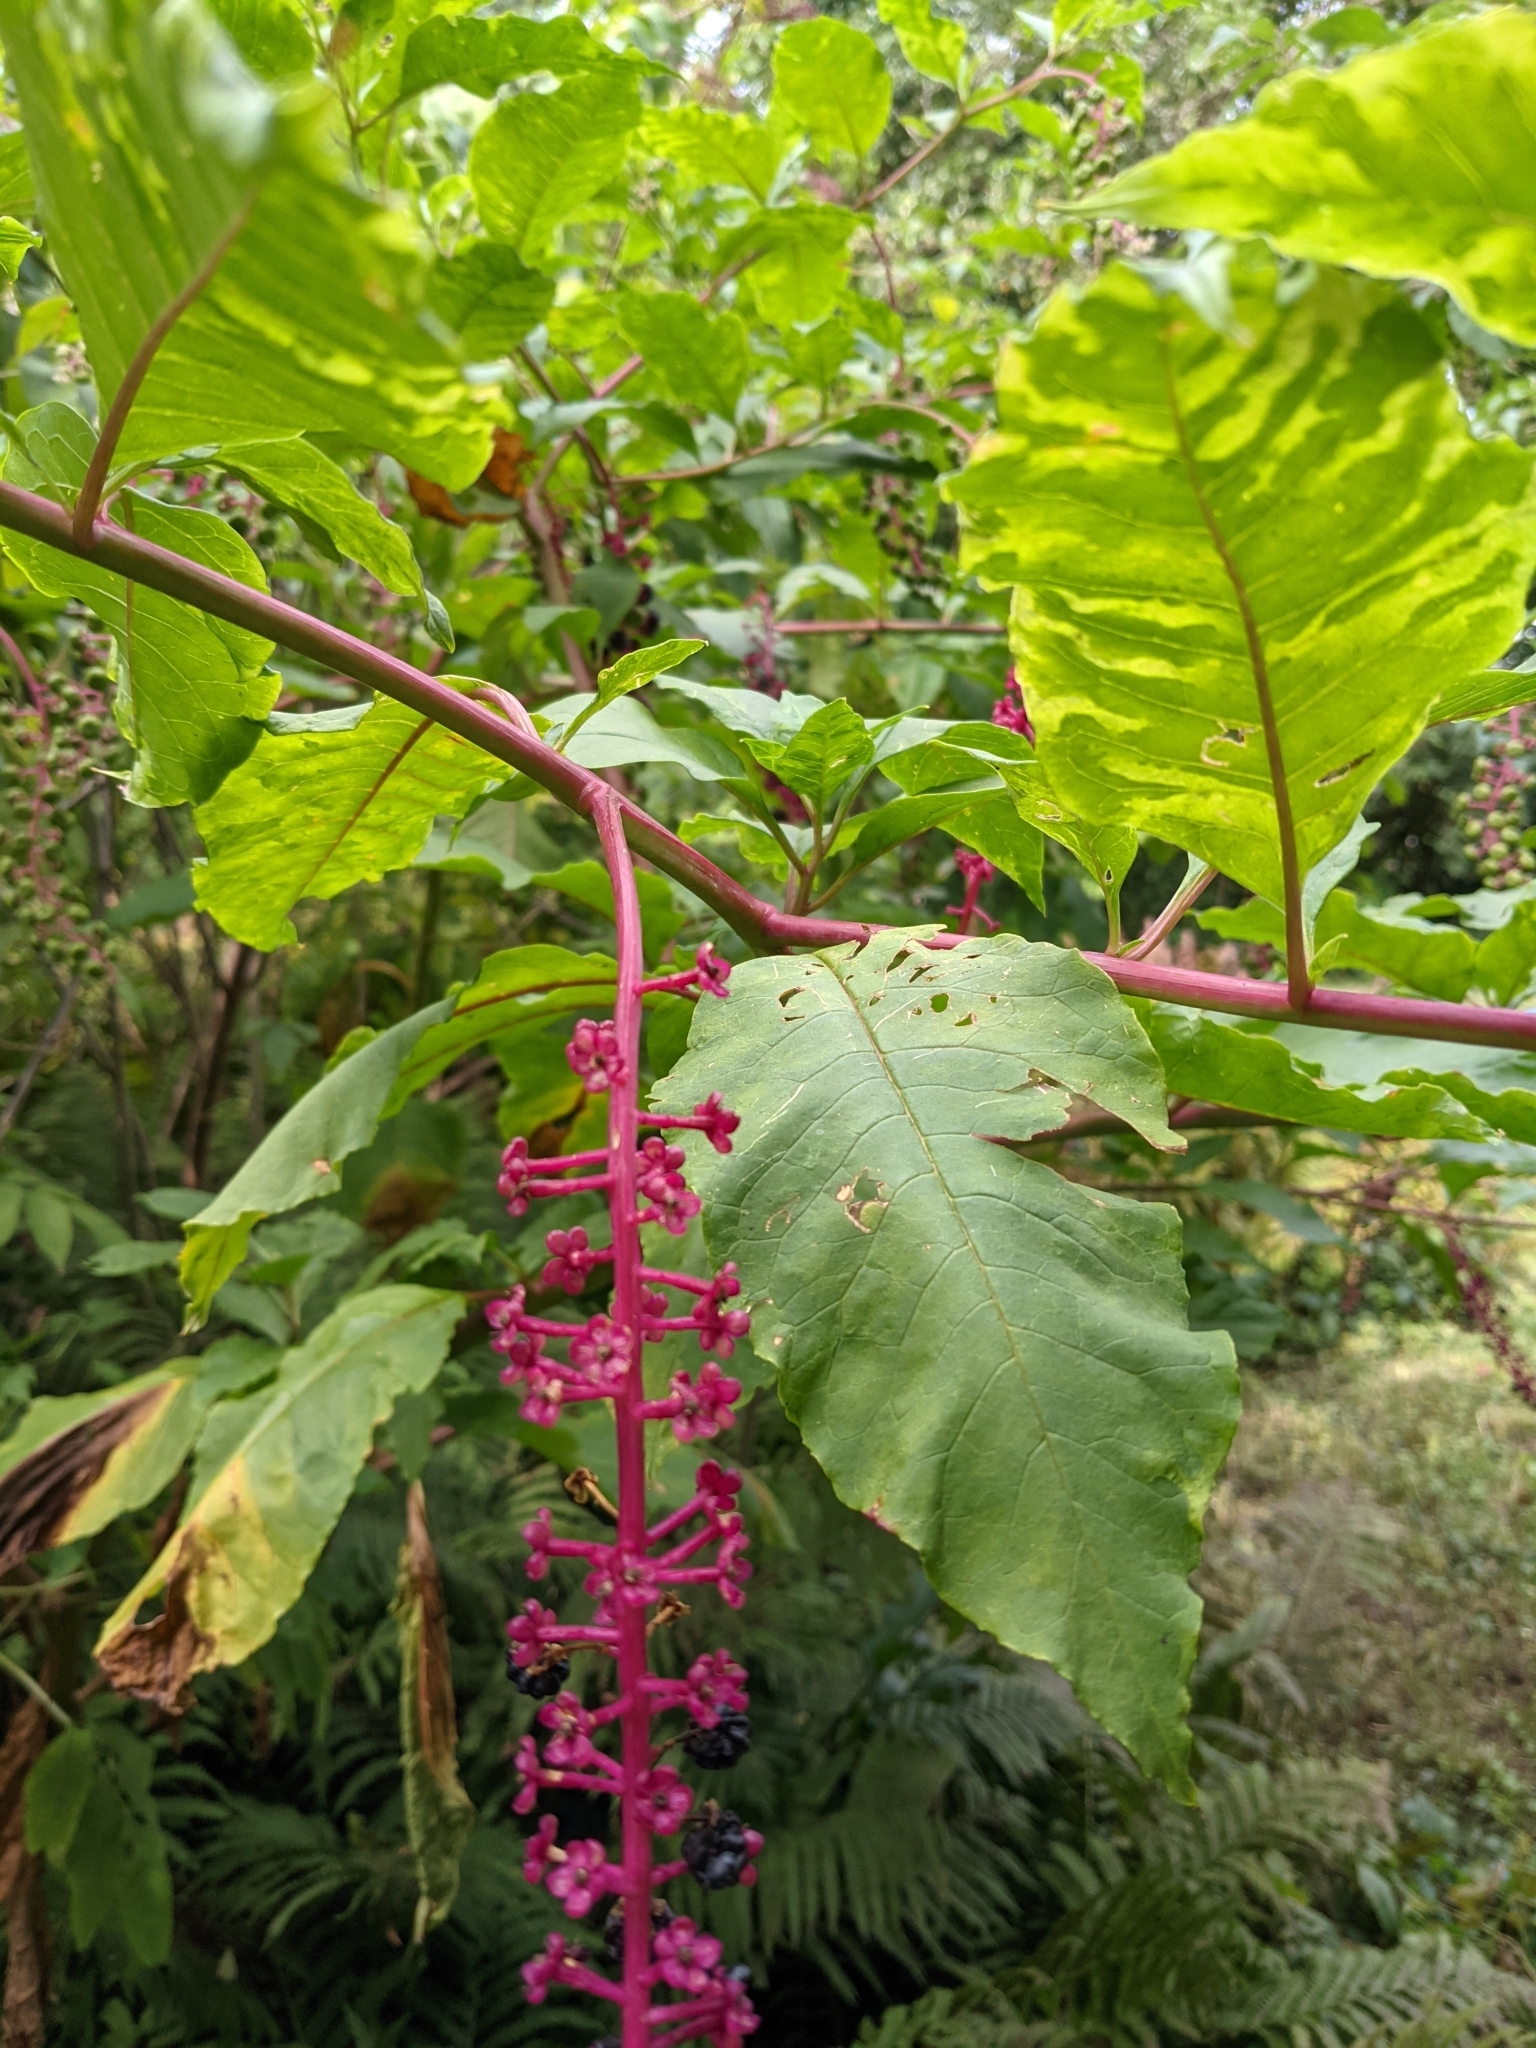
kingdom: Plantae
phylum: Tracheophyta
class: Magnoliopsida
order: Caryophyllales
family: Phytolaccaceae
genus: Phytolacca
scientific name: Phytolacca americana
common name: American pokeweed
